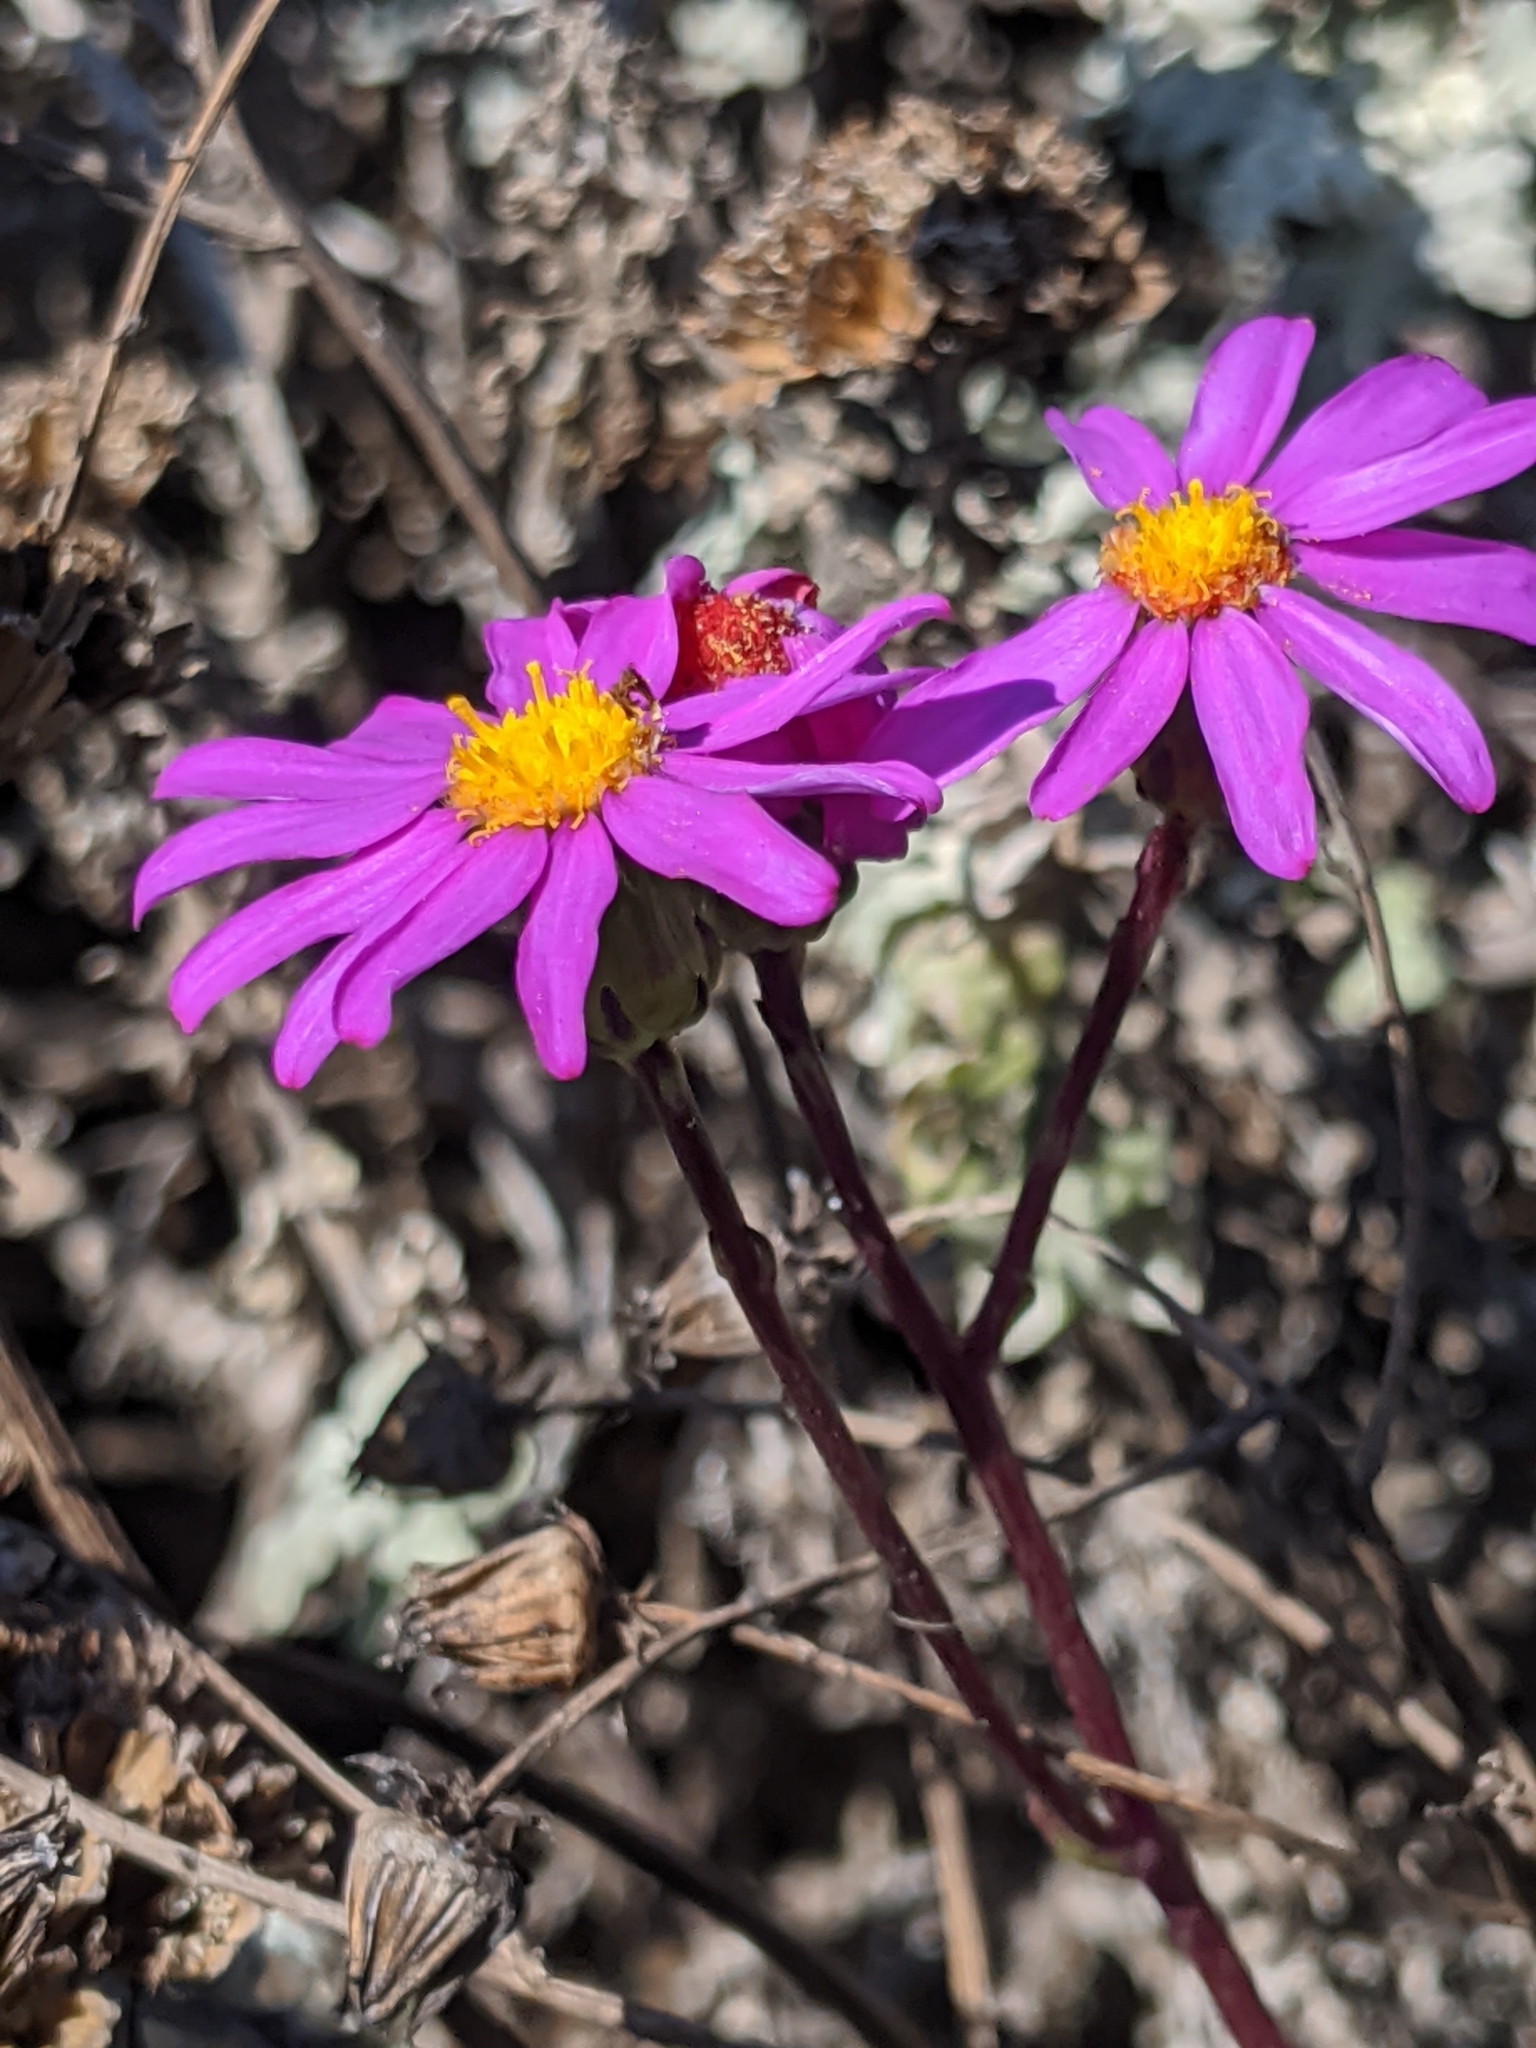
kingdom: Plantae
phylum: Tracheophyta
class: Magnoliopsida
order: Asterales
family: Asteraceae
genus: Senecio
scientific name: Senecio elegans
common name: Purple groundsel
